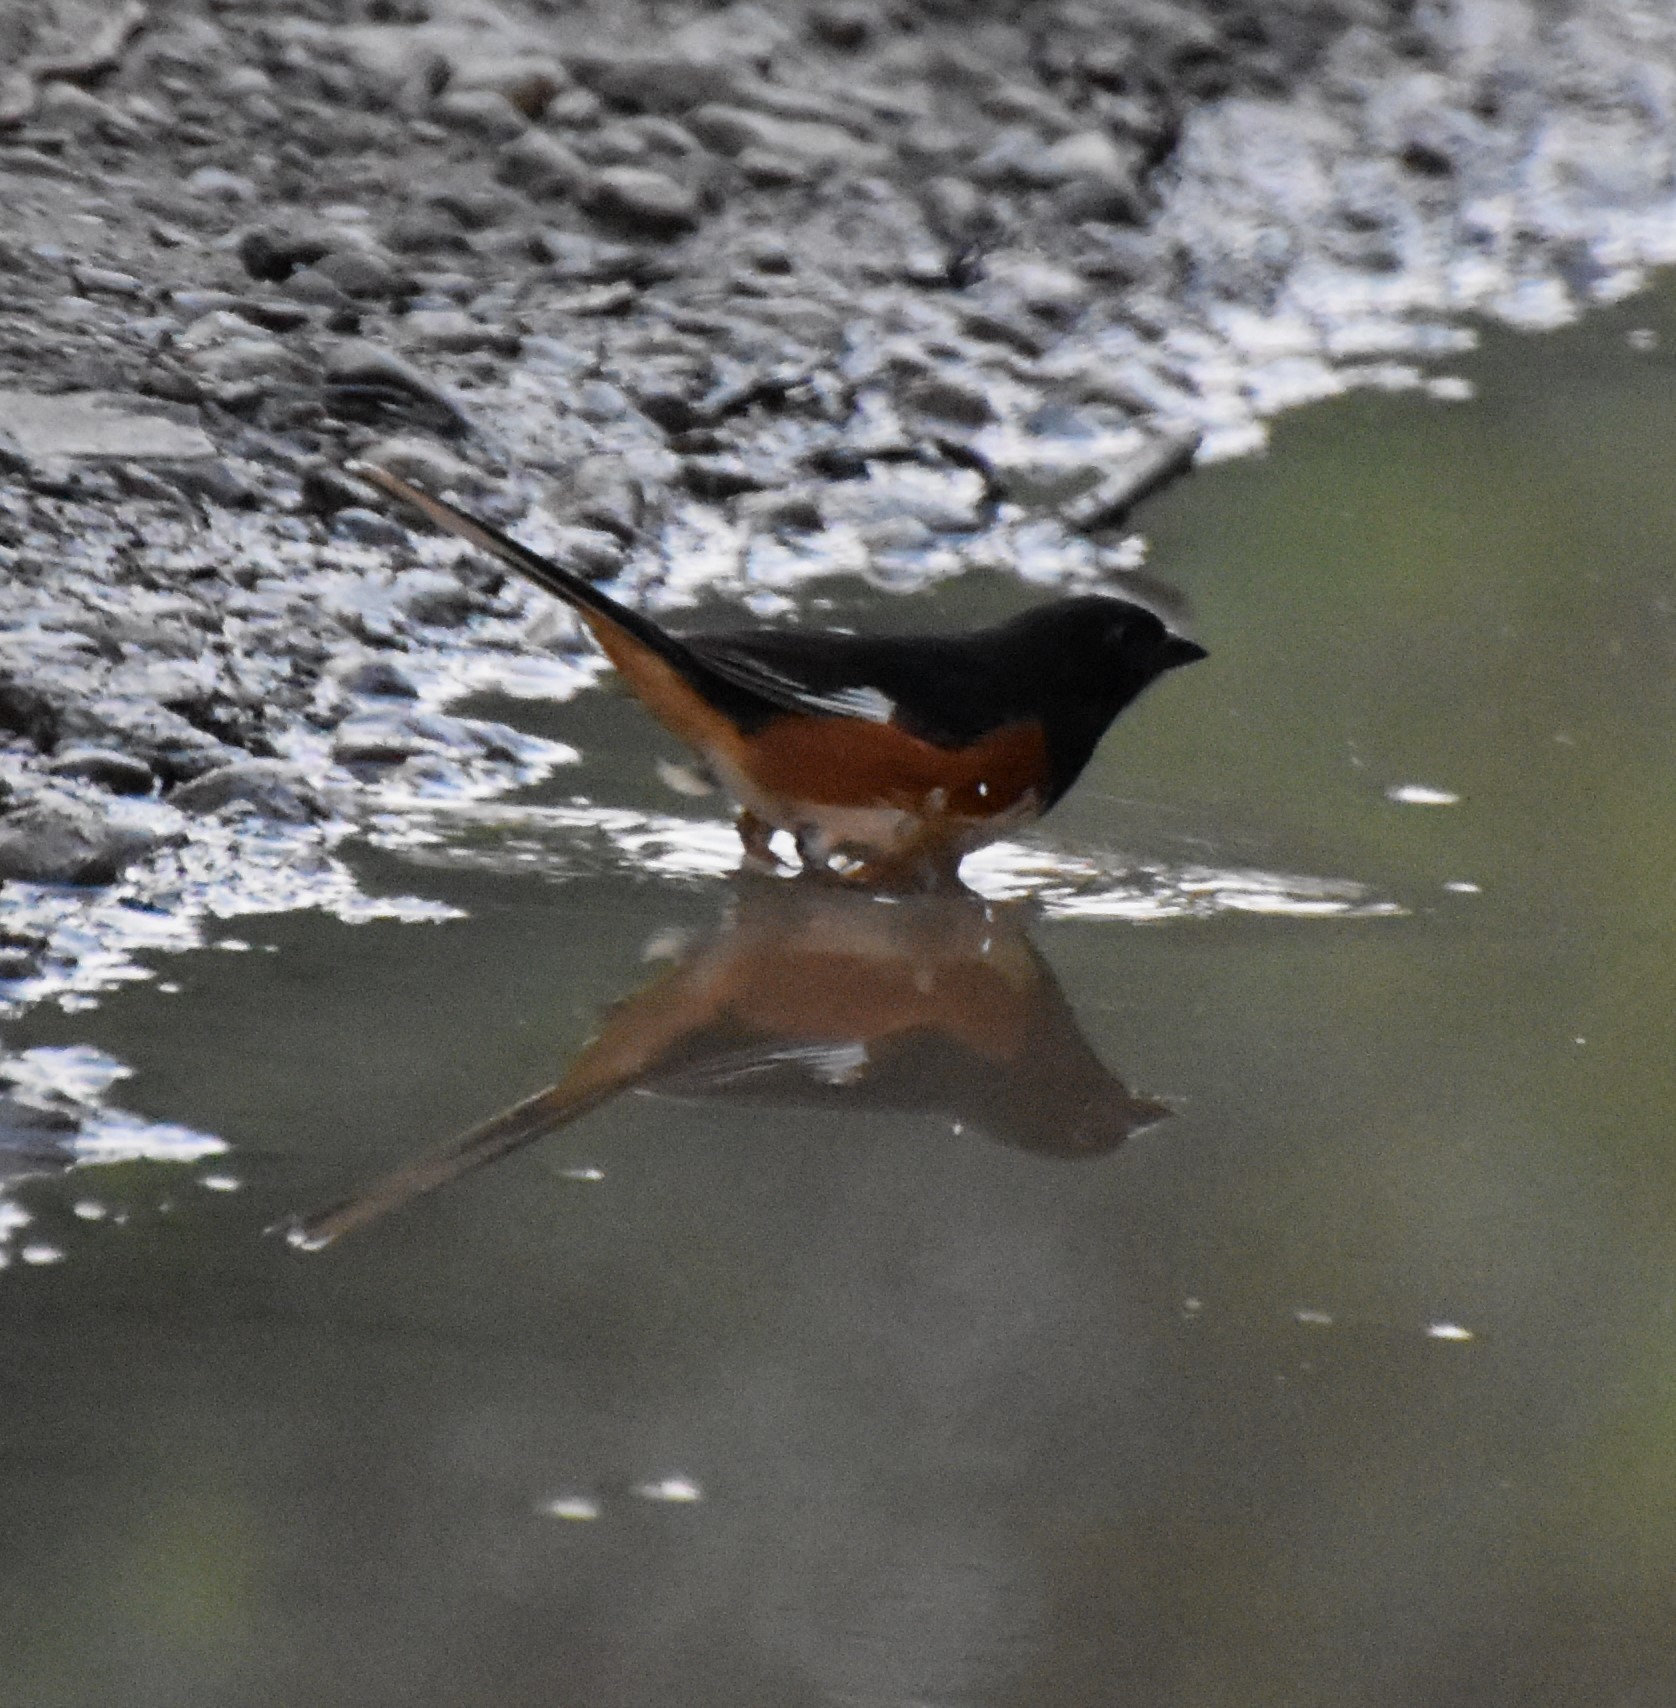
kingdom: Animalia
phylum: Chordata
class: Aves
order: Passeriformes
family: Passerellidae
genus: Pipilo
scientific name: Pipilo erythrophthalmus
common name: Eastern towhee
